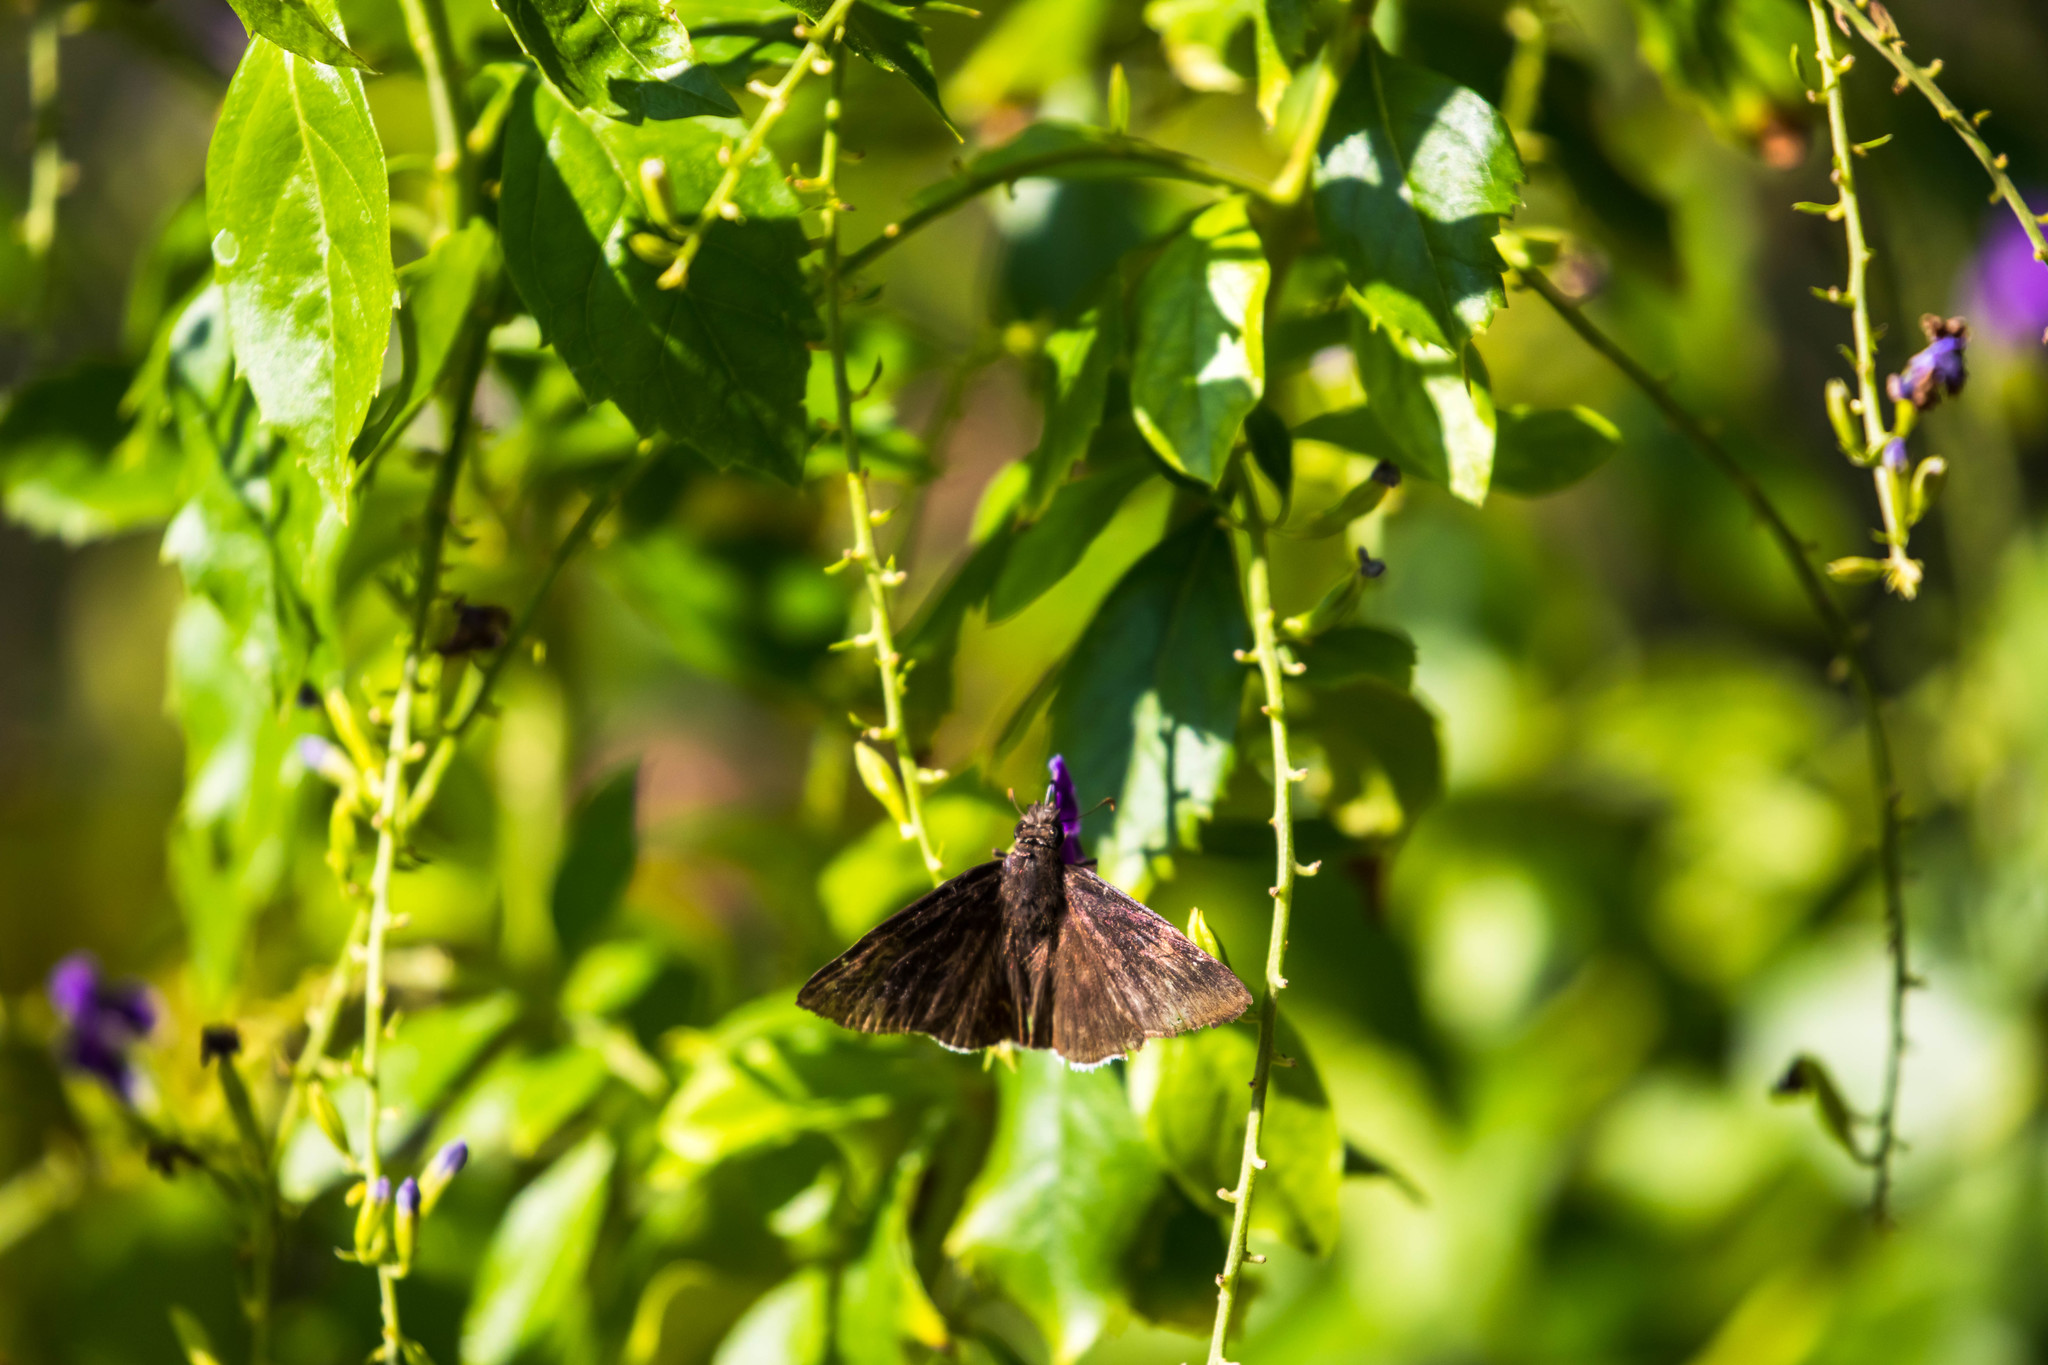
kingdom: Animalia
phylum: Arthropoda
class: Insecta
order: Lepidoptera
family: Hesperiidae
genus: Achalarus
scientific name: Achalarus Murgaria albociliatus
